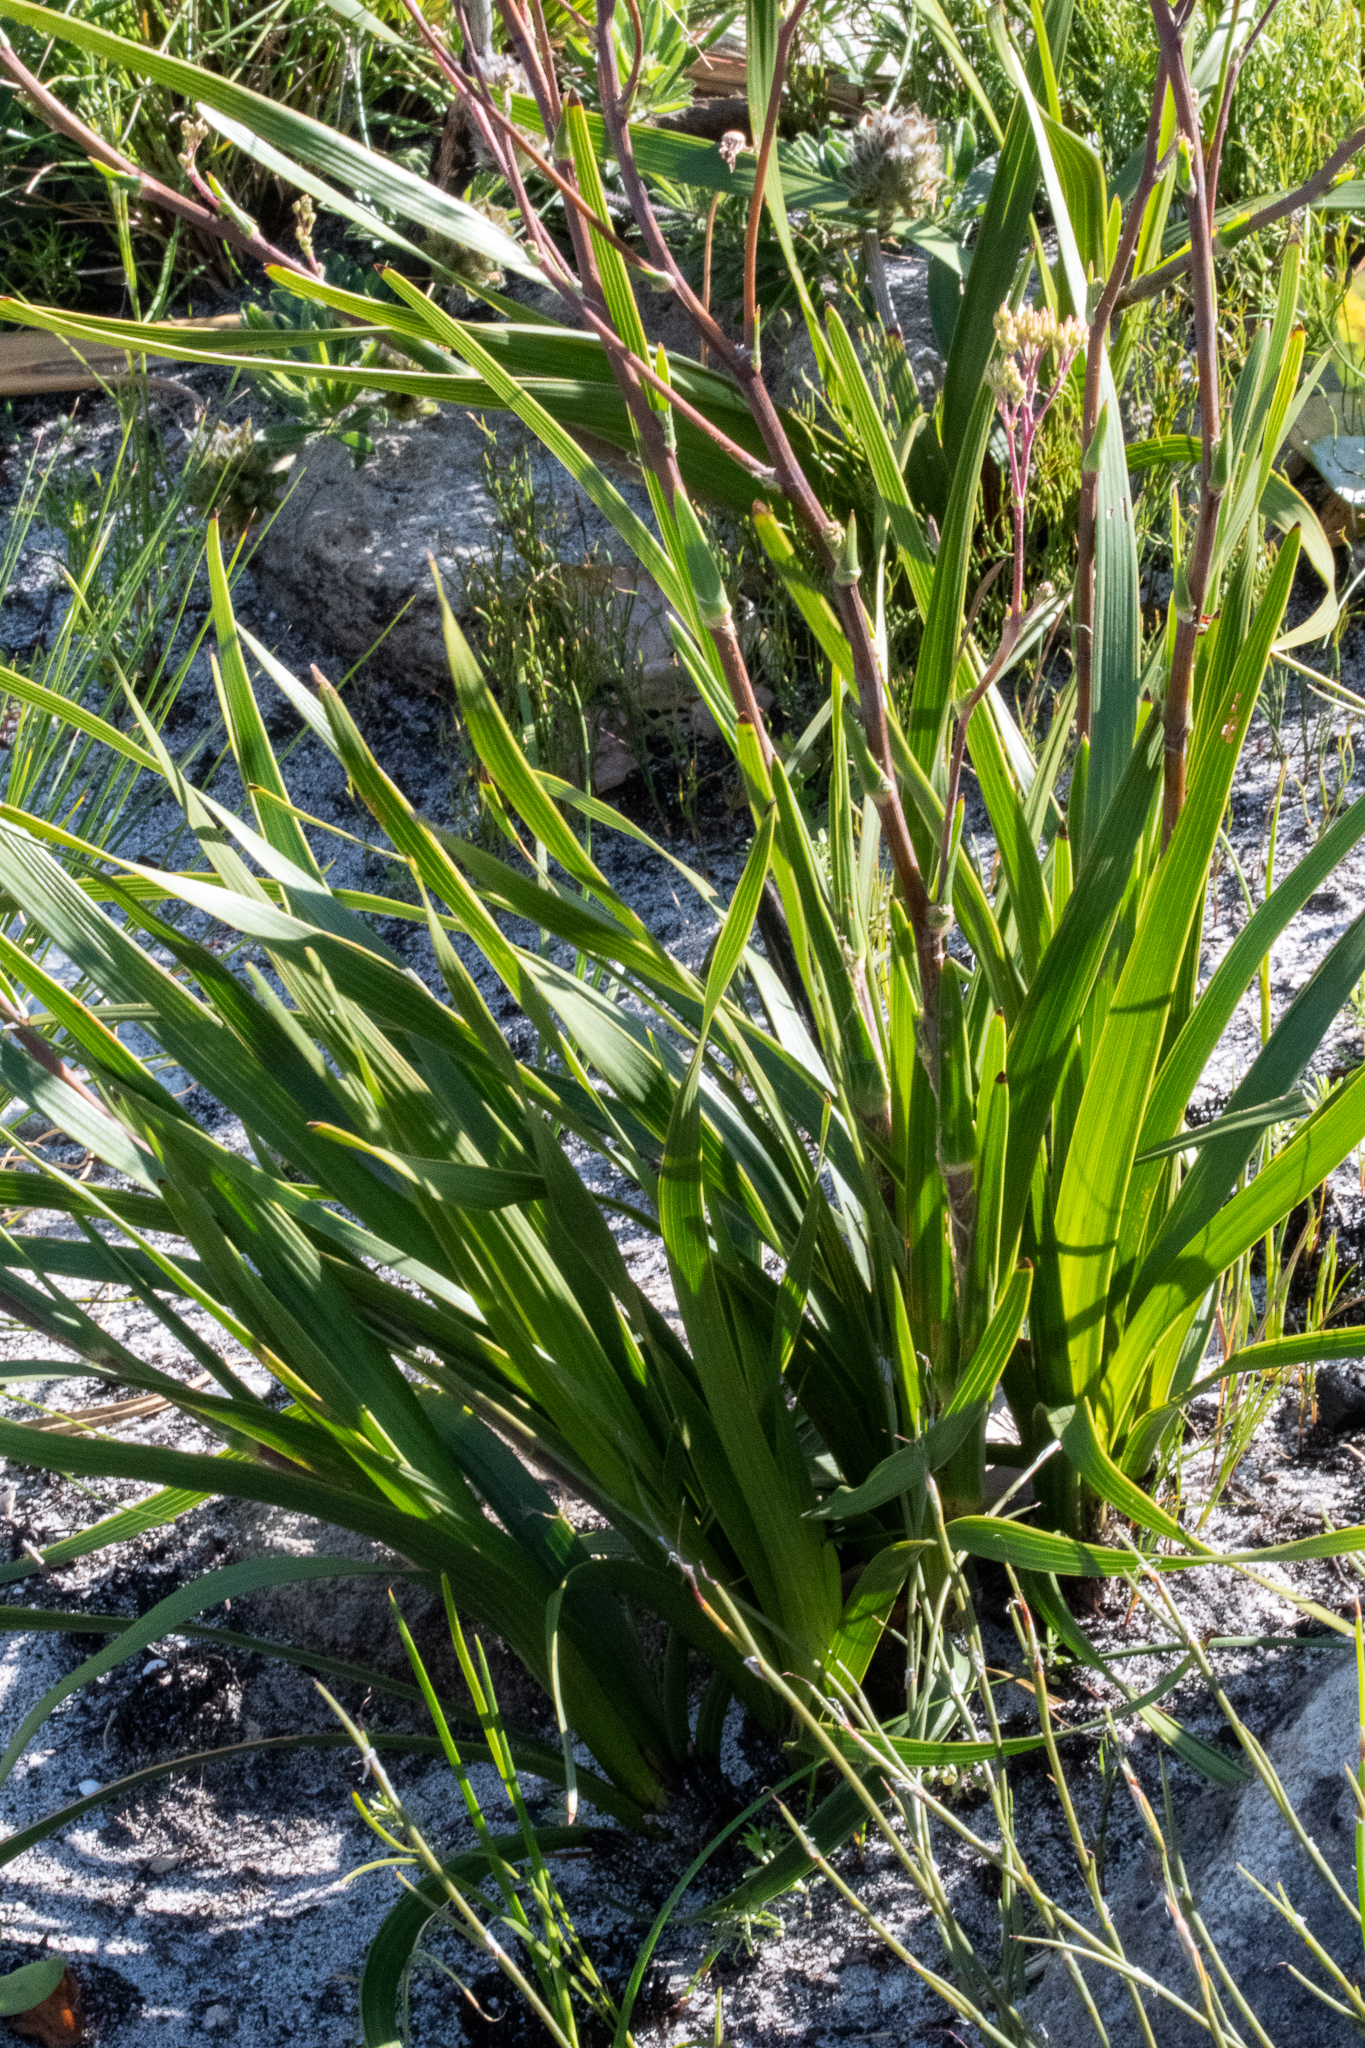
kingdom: Plantae
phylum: Tracheophyta
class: Magnoliopsida
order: Asterales
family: Asteraceae
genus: Corymbium
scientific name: Corymbium glabrum
